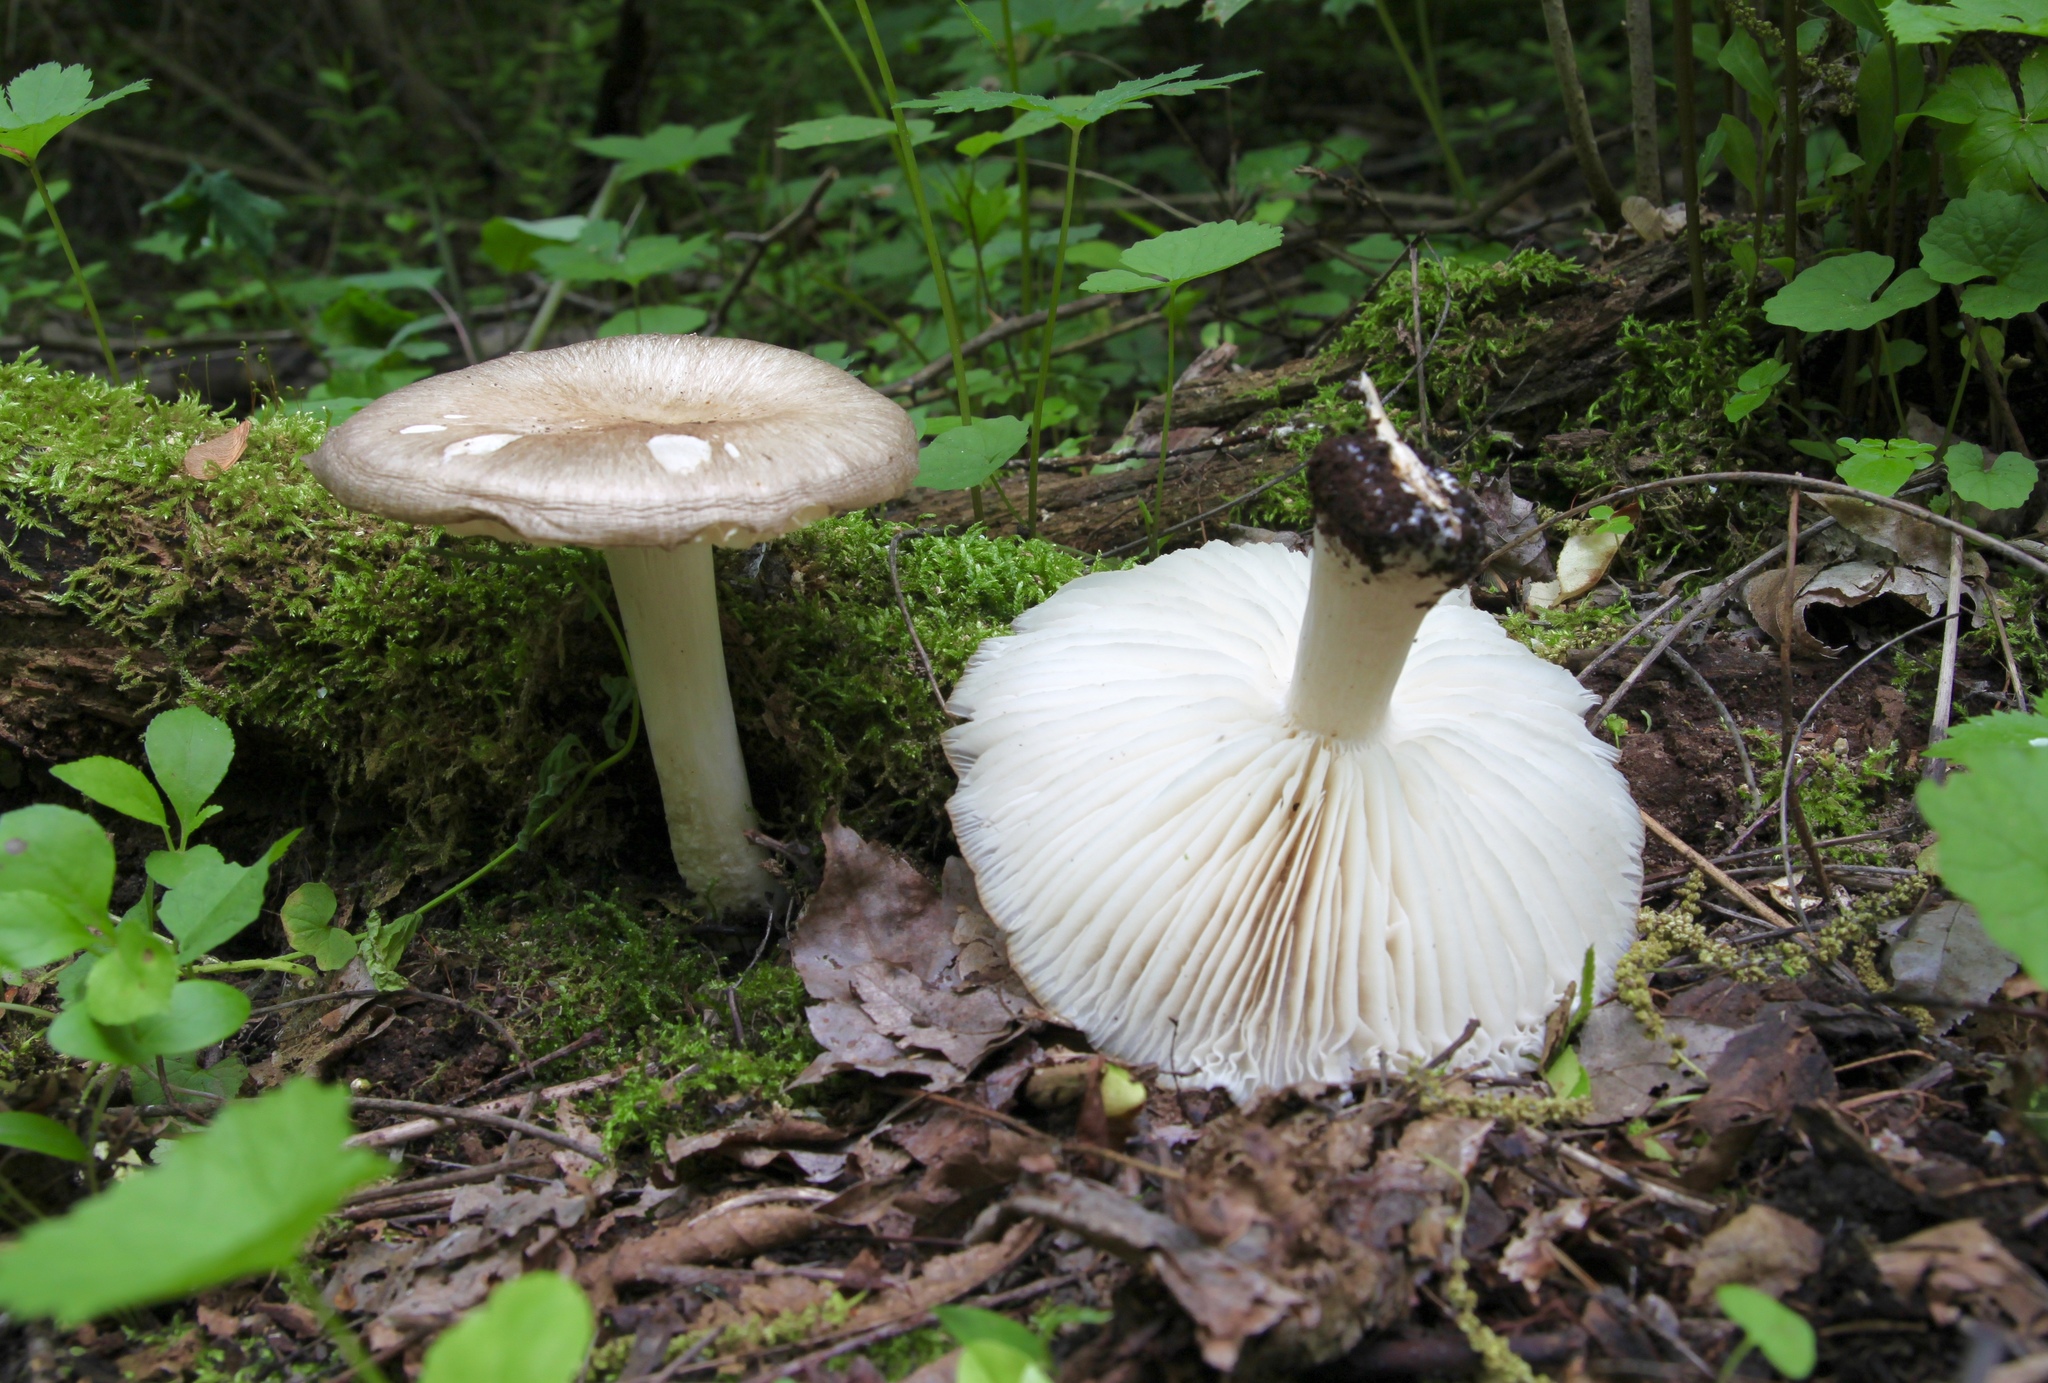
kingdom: Fungi
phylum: Basidiomycota
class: Agaricomycetes
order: Agaricales
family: Tricholomataceae
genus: Megacollybia
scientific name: Megacollybia rodmanii
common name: Eastern american platterful mushroom
